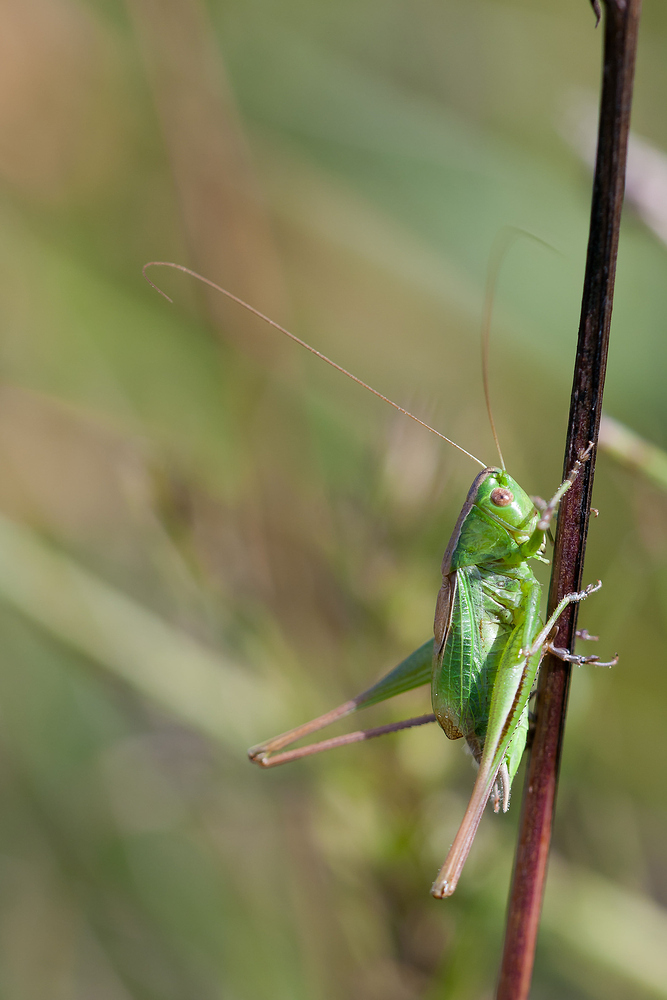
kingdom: Animalia
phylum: Arthropoda
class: Insecta
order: Orthoptera
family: Tettigoniidae
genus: Bicolorana
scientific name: Bicolorana bicolor
